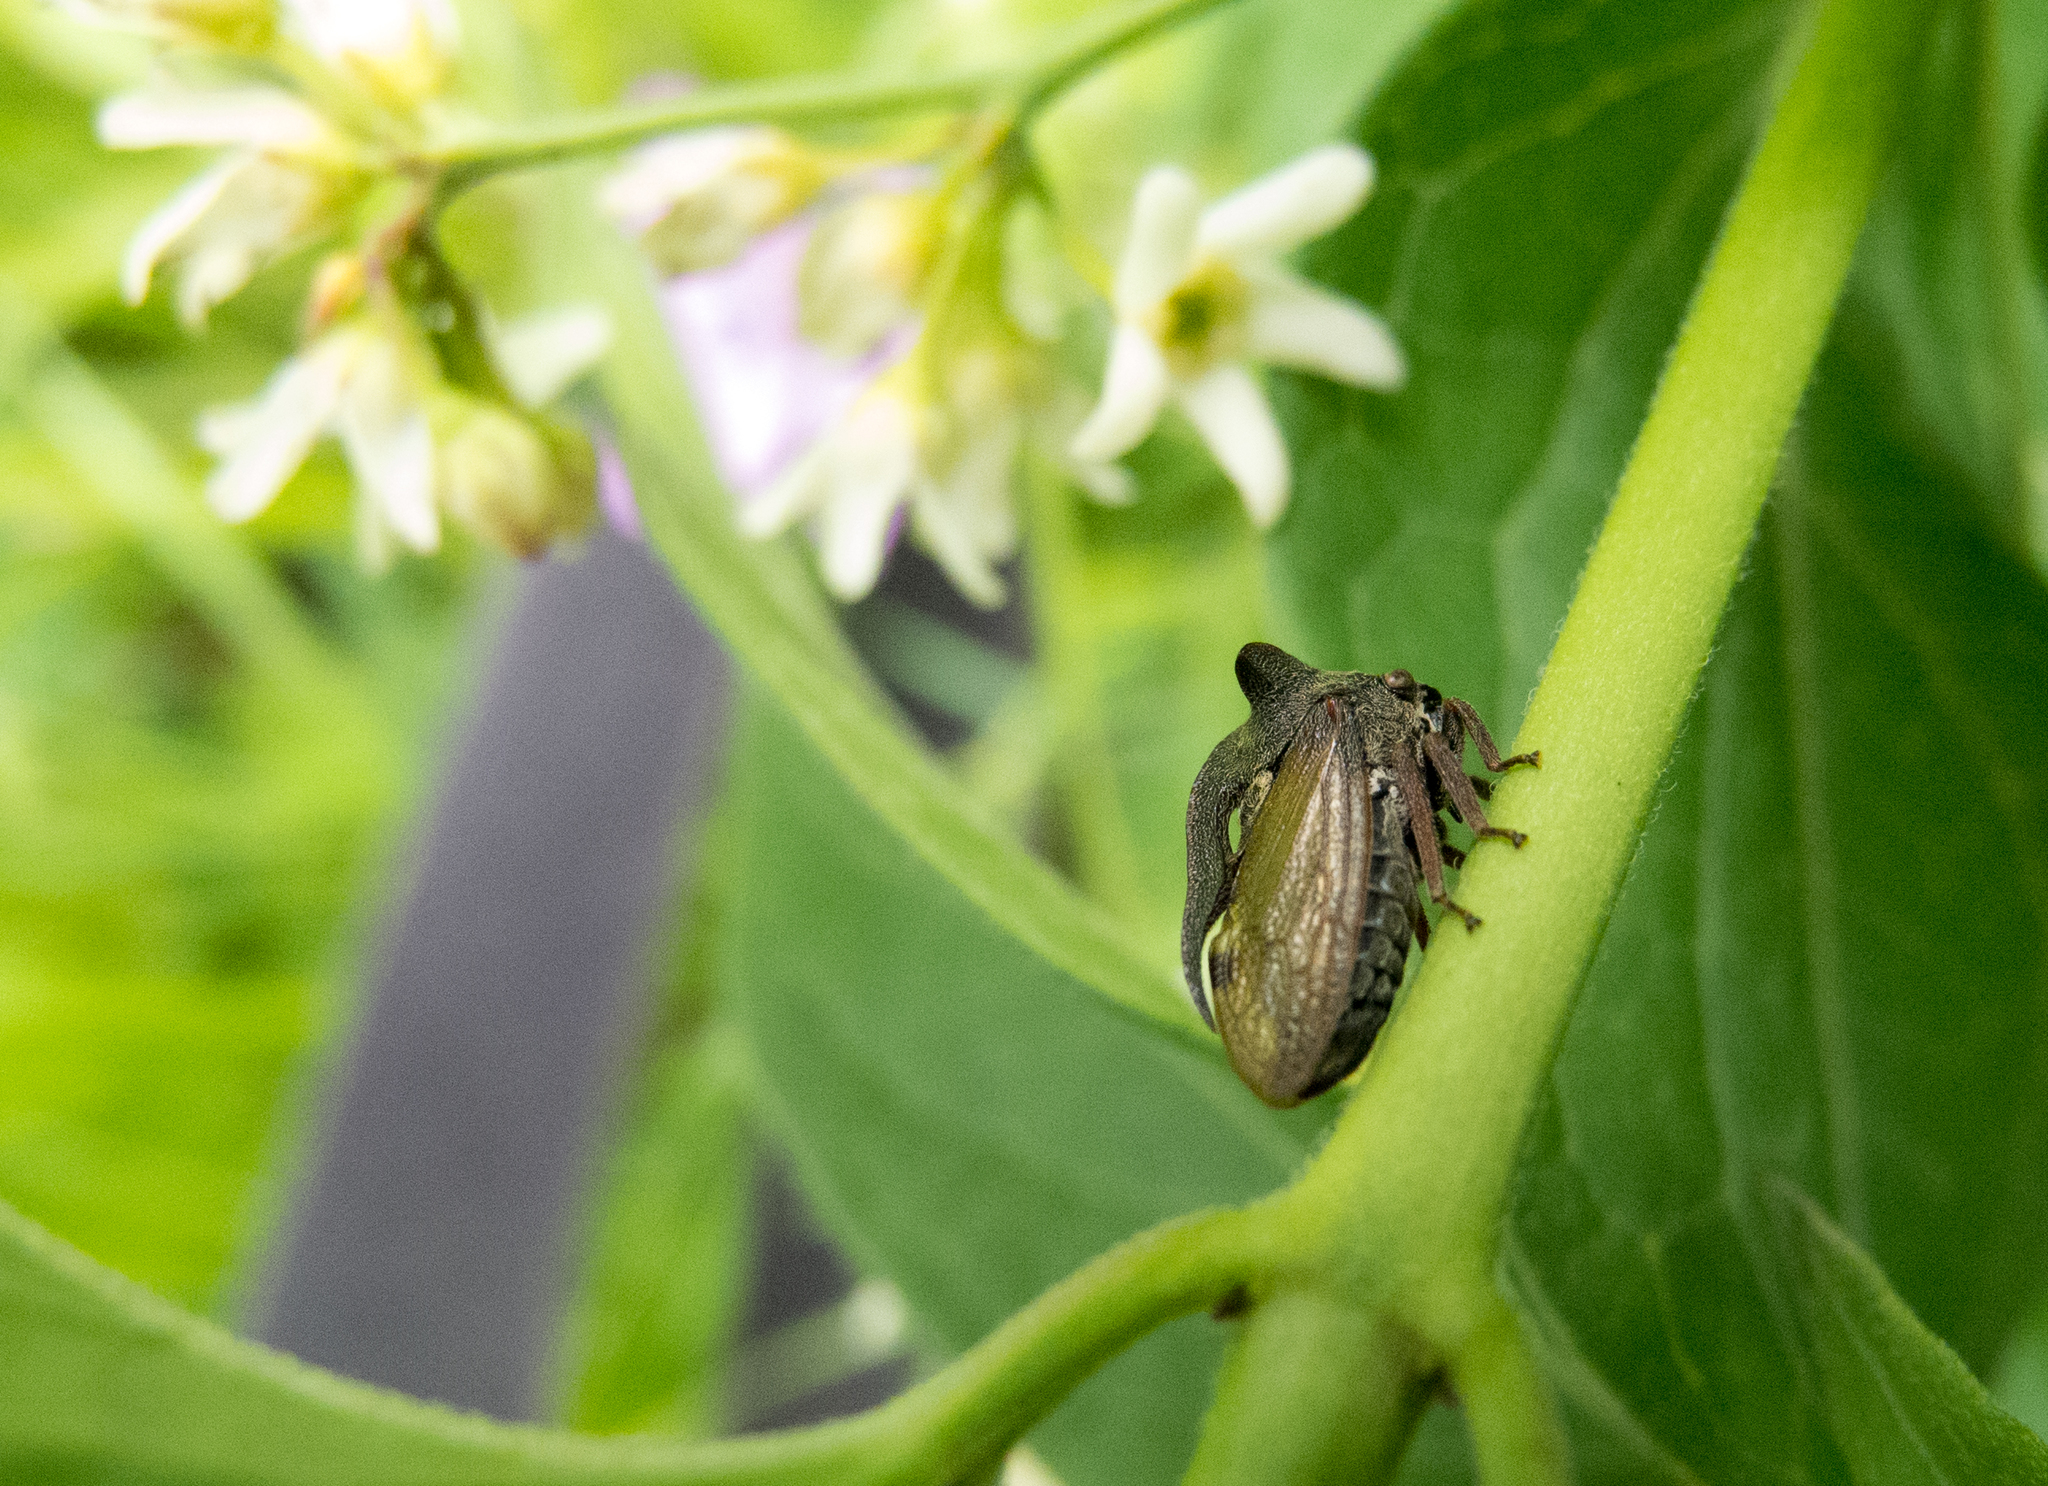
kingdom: Animalia
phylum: Arthropoda
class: Insecta
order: Hemiptera
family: Membracidae
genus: Centrotus
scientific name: Centrotus cornuta
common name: Treehopper
